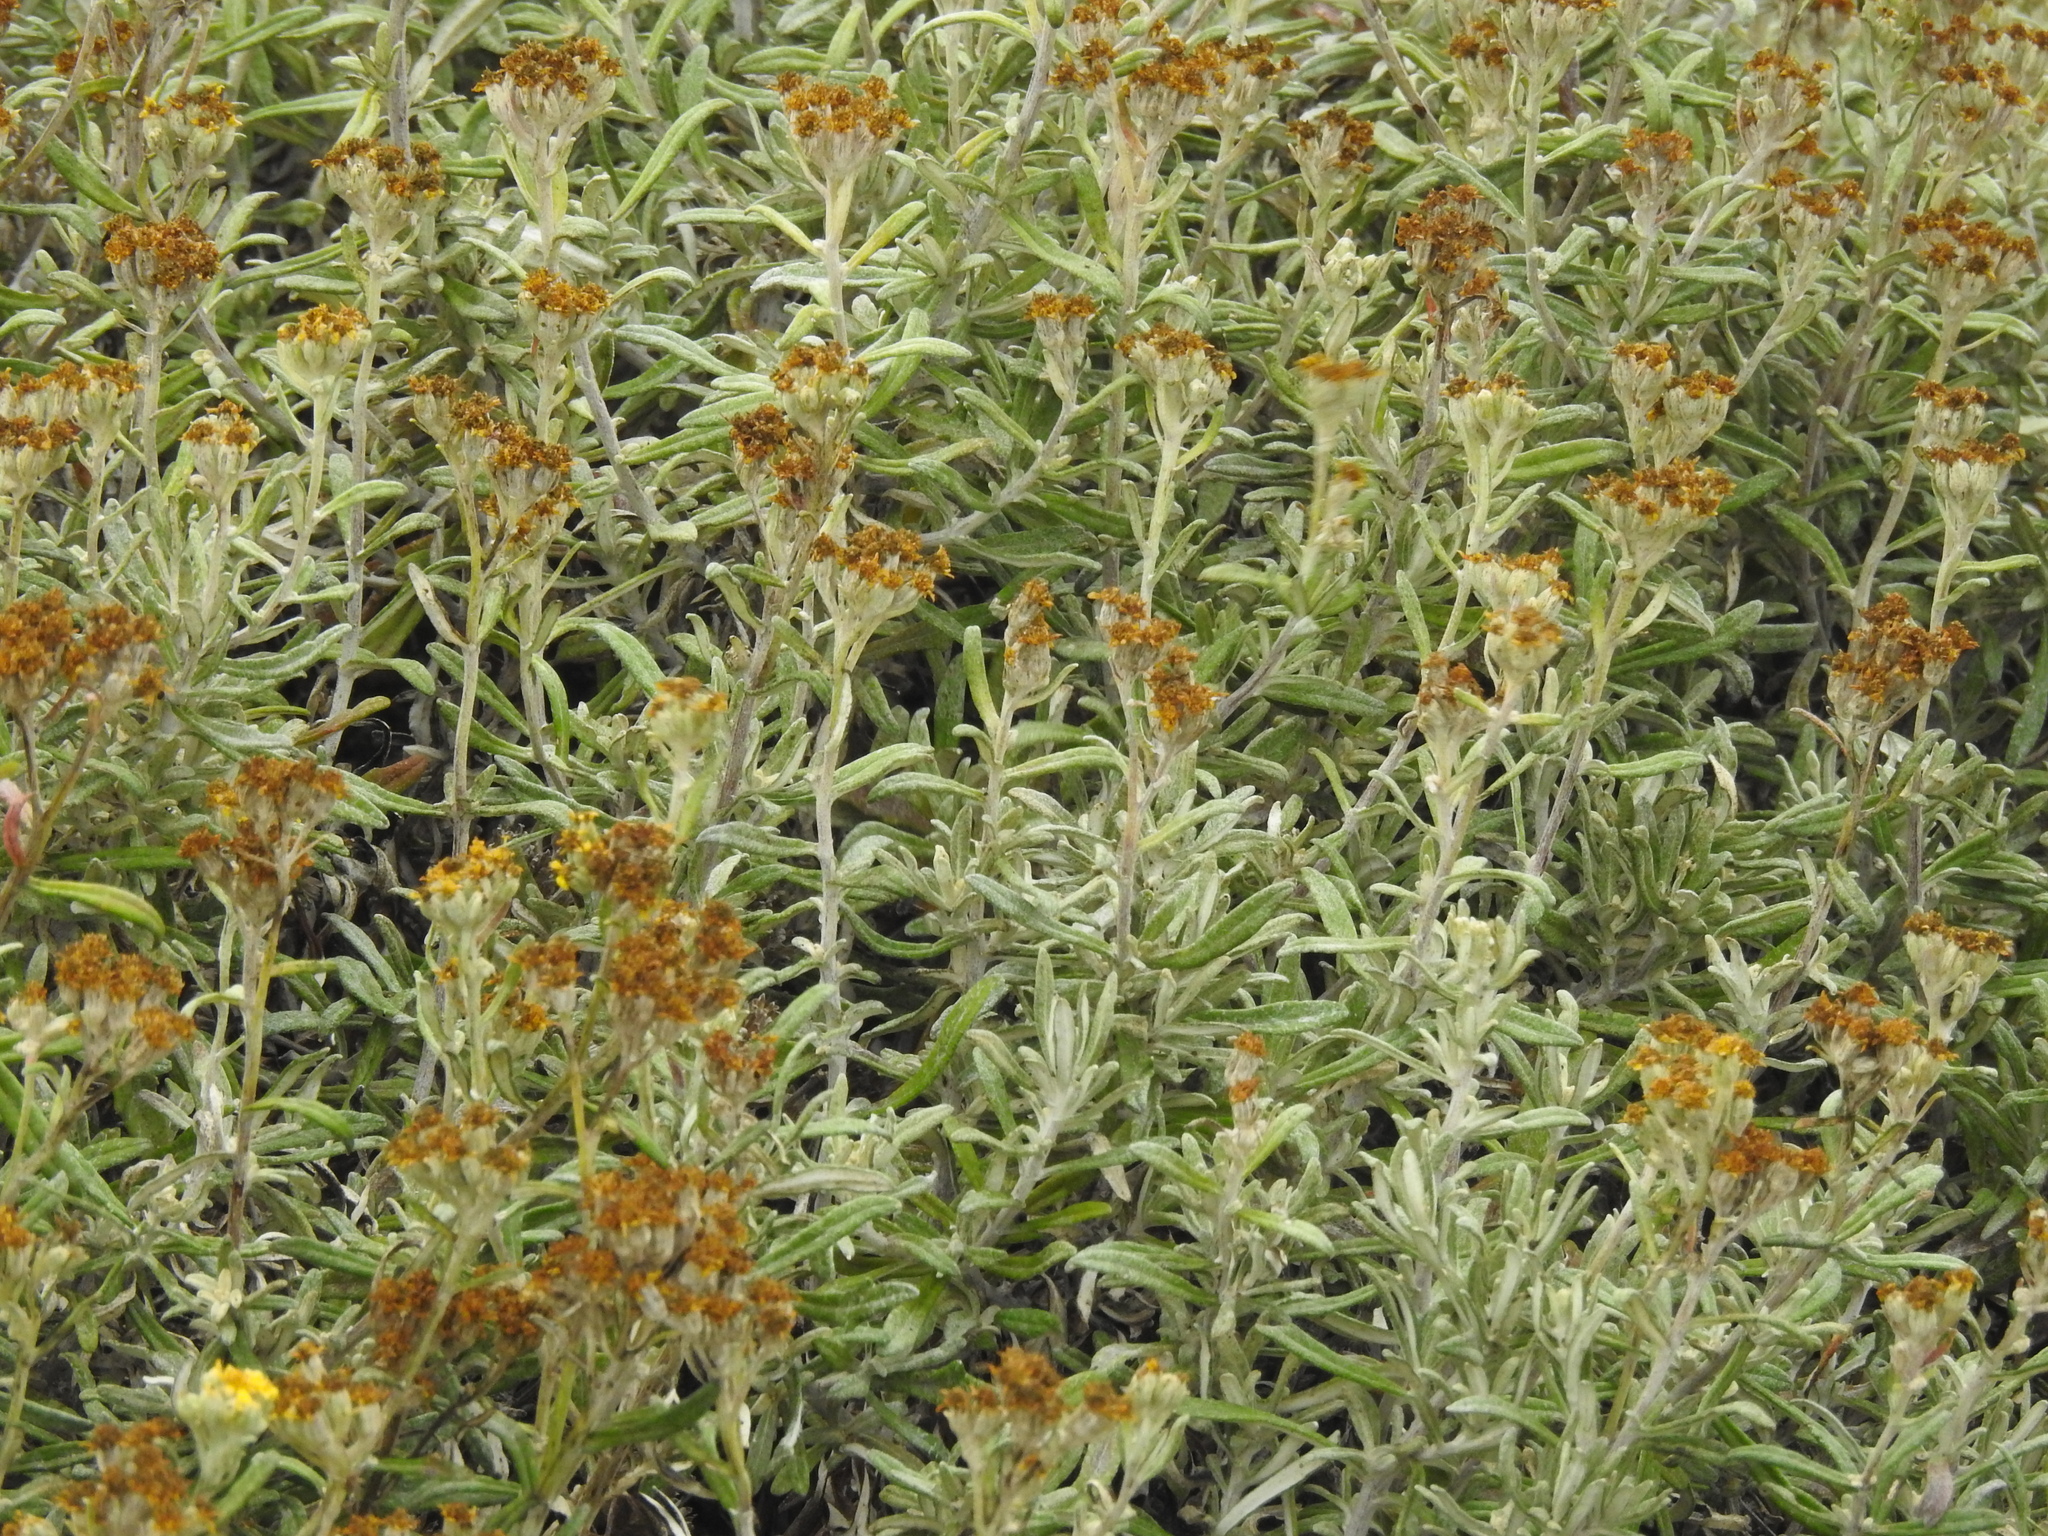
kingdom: Plantae
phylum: Tracheophyta
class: Magnoliopsida
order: Asterales
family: Asteraceae
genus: Eriophyllum
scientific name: Eriophyllum staechadifolium
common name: Lizardtail
